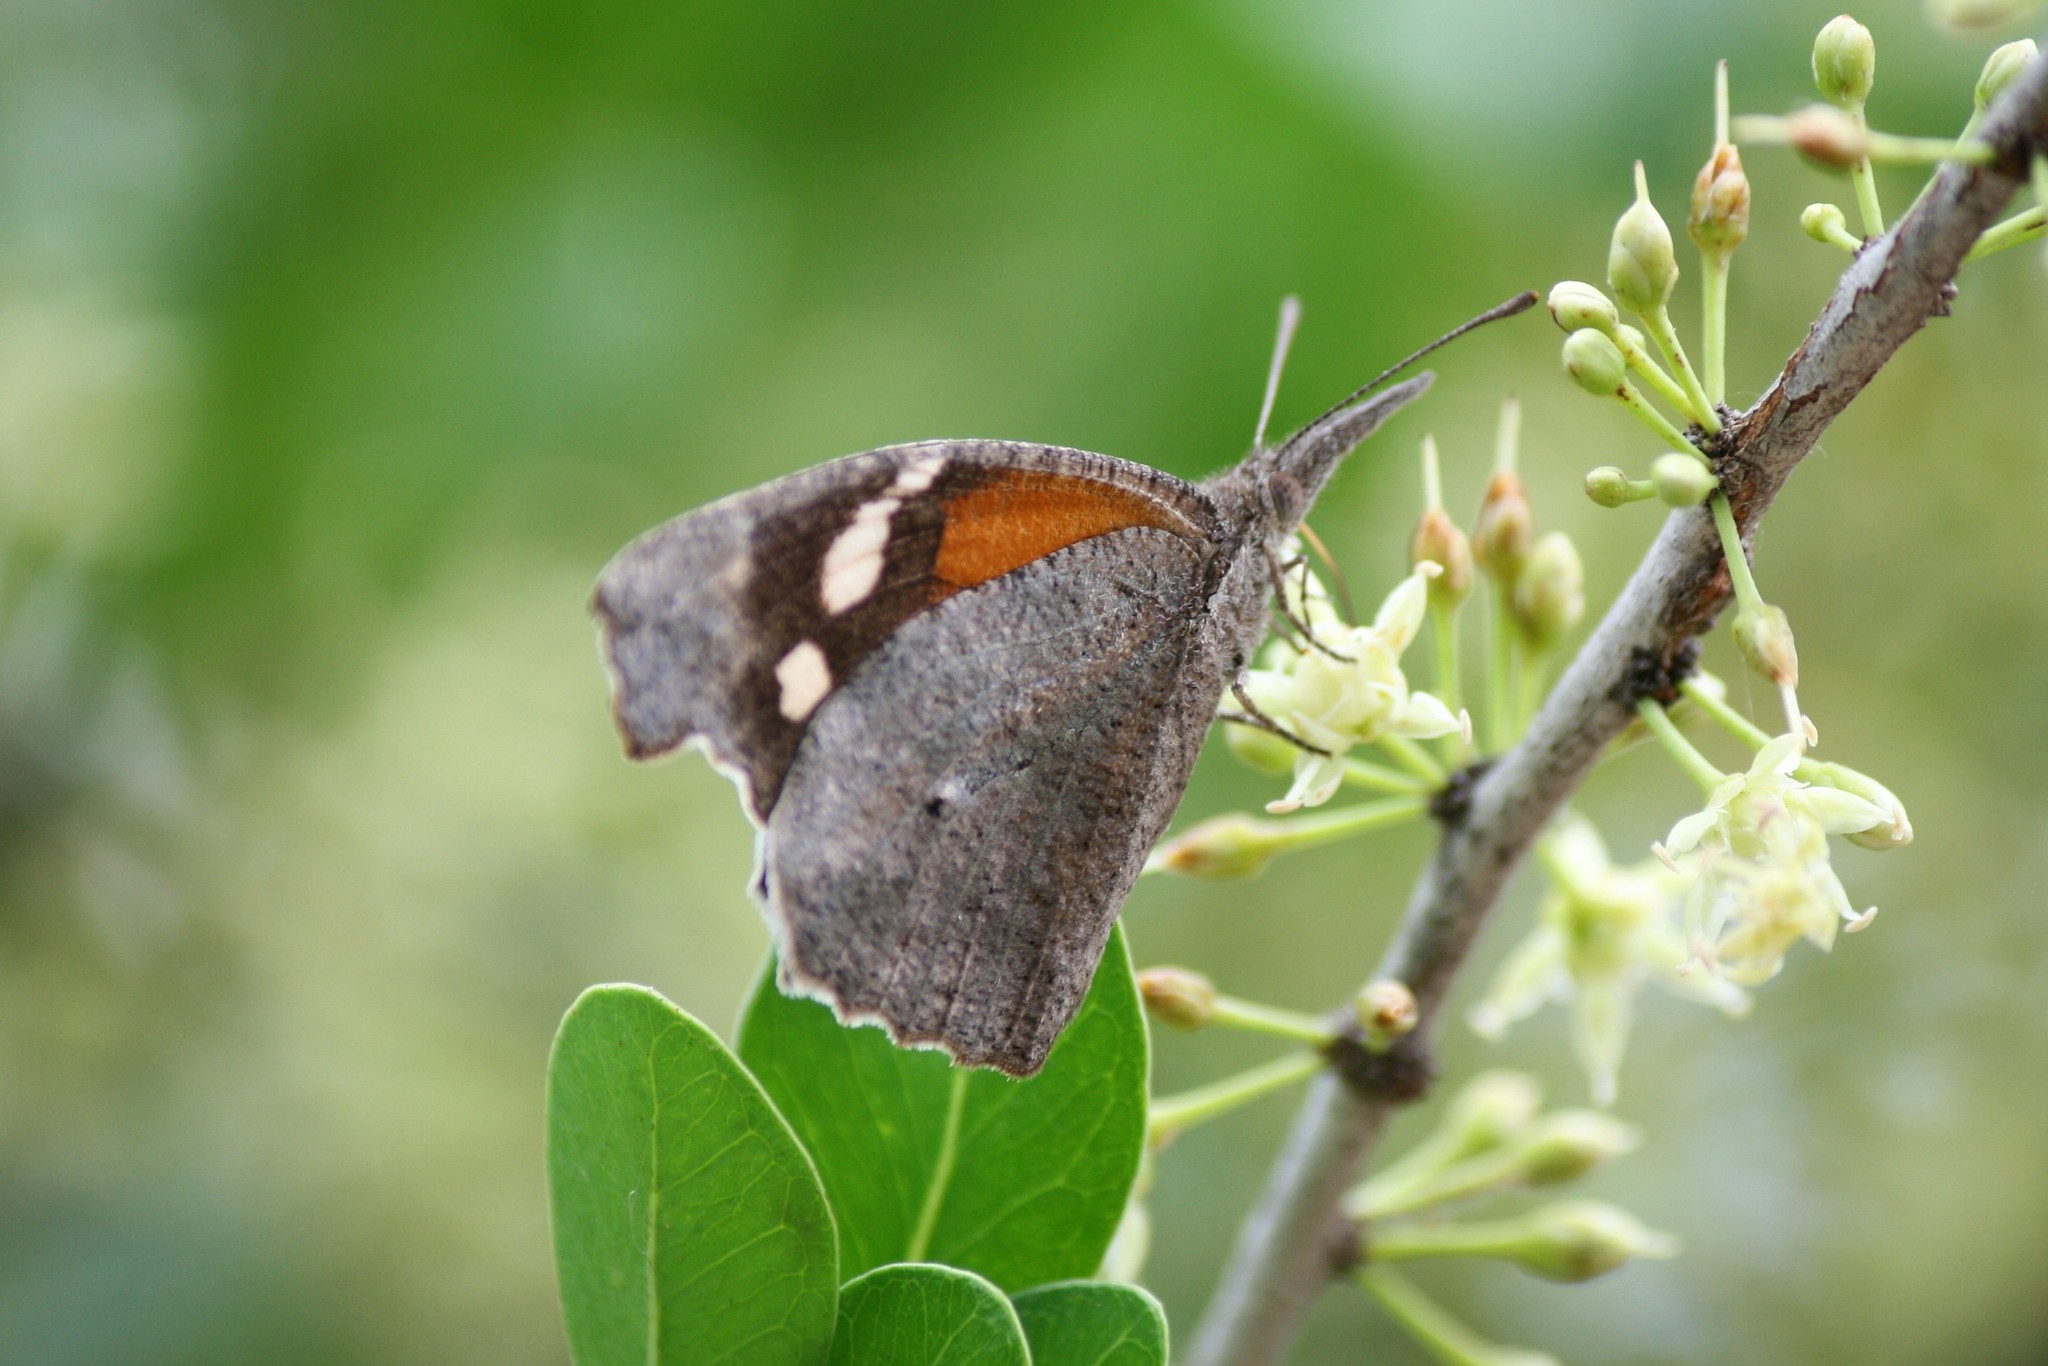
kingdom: Animalia
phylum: Arthropoda
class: Insecta
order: Lepidoptera
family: Nymphalidae
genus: Libytheana
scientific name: Libytheana carinenta
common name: American snout
